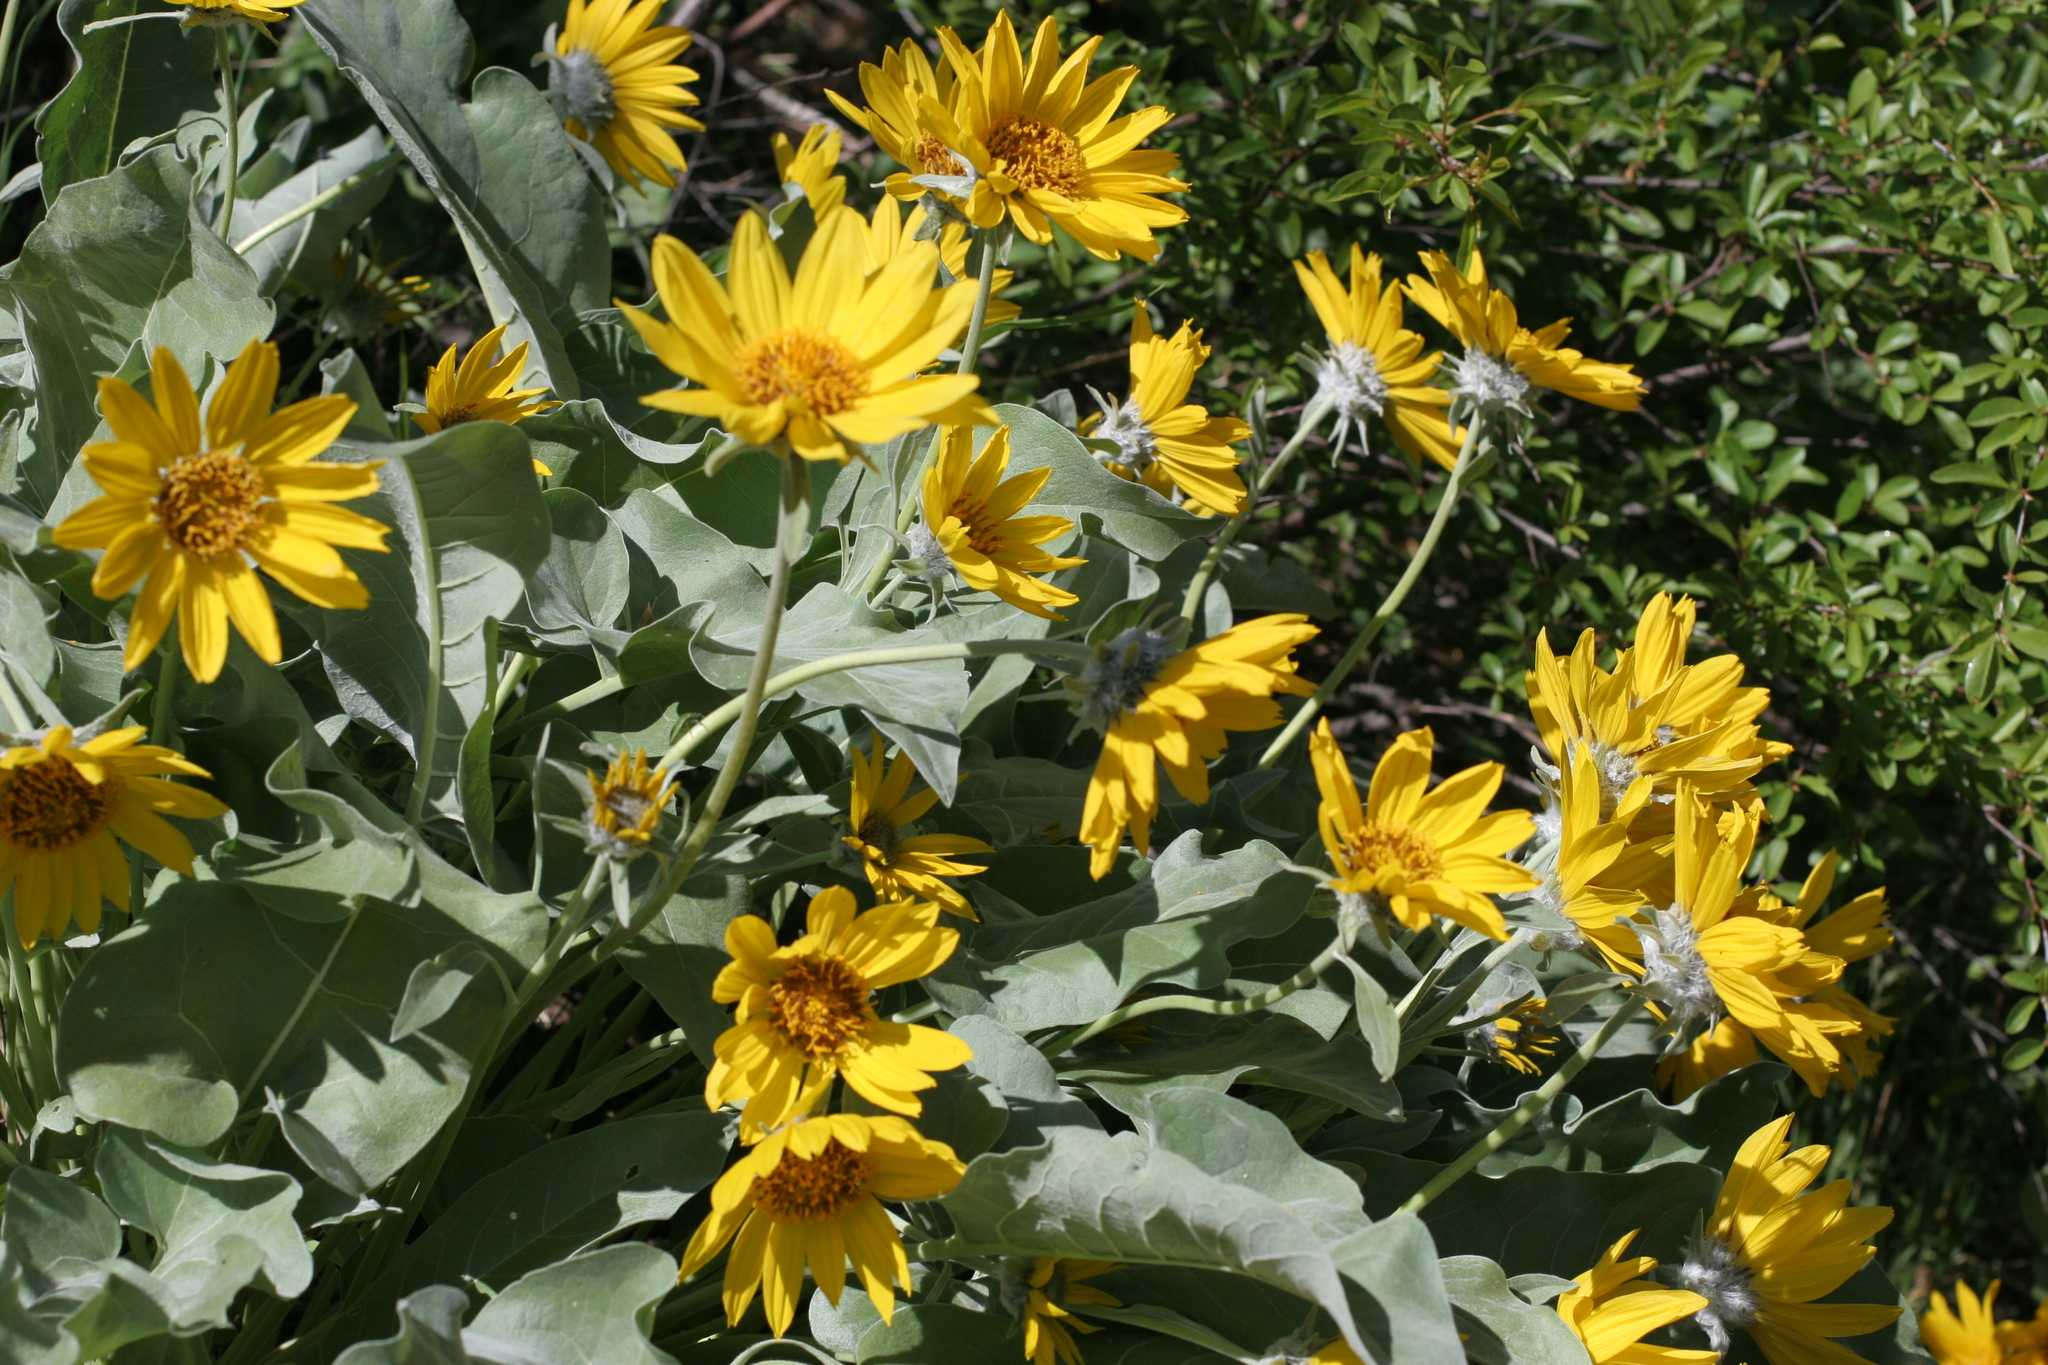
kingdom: Plantae
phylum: Tracheophyta
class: Magnoliopsida
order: Asterales
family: Asteraceae
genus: Wyethia
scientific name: Wyethia sagittata
